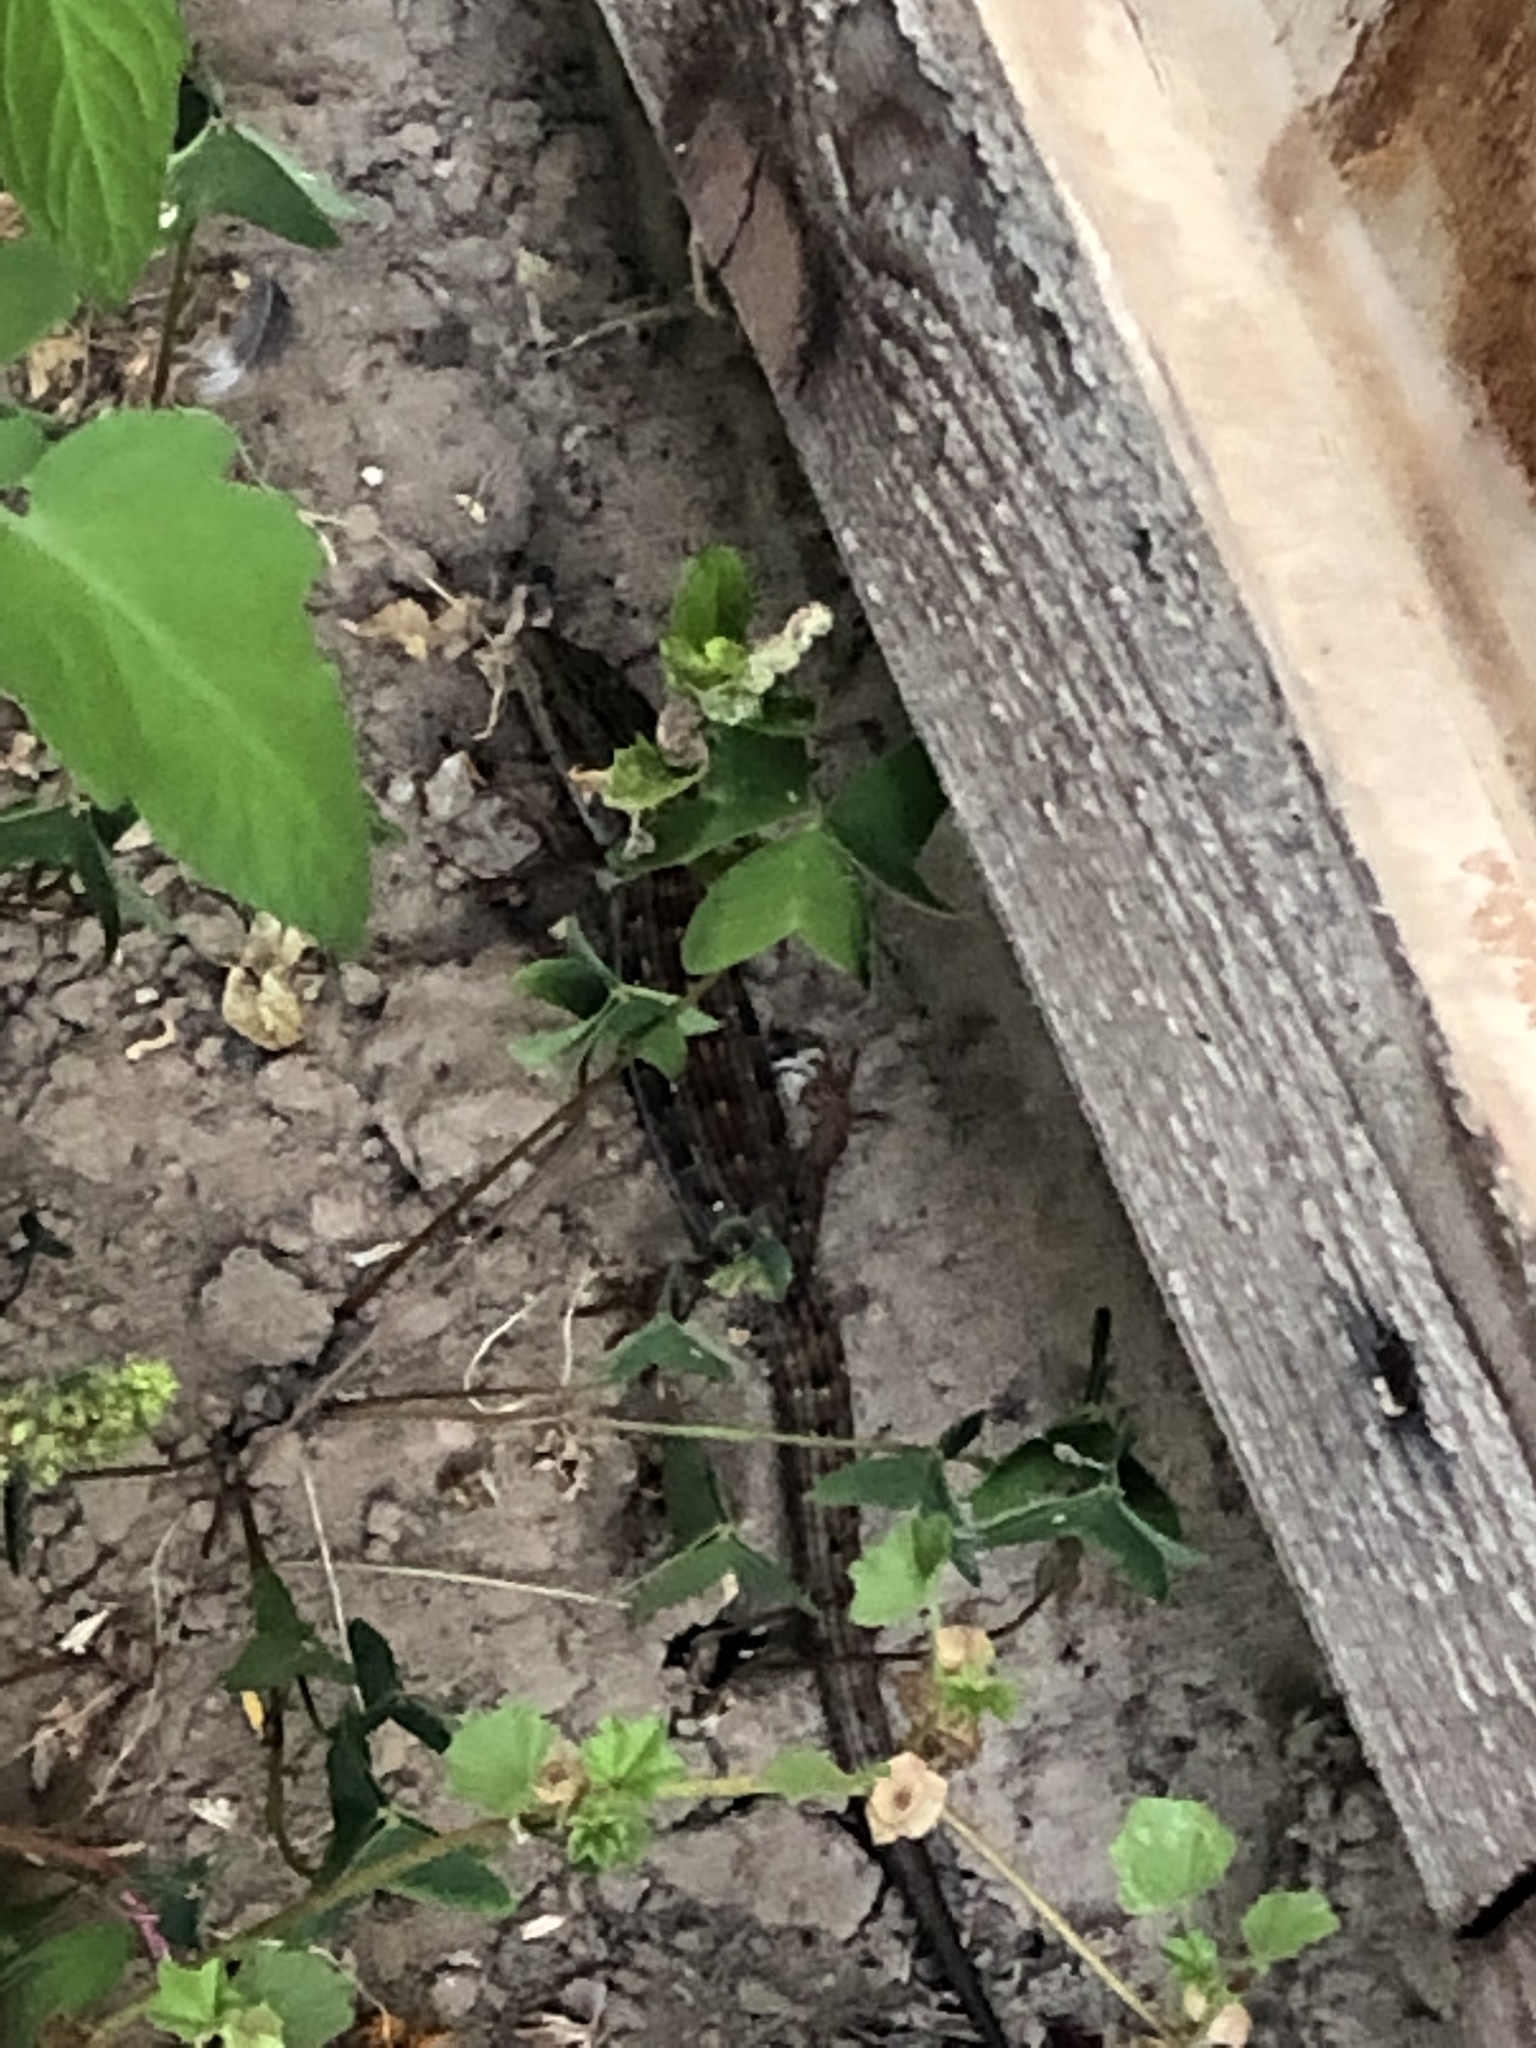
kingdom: Animalia
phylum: Chordata
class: Squamata
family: Anguidae
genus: Elgaria
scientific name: Elgaria multicarinata
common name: Southern alligator lizard
